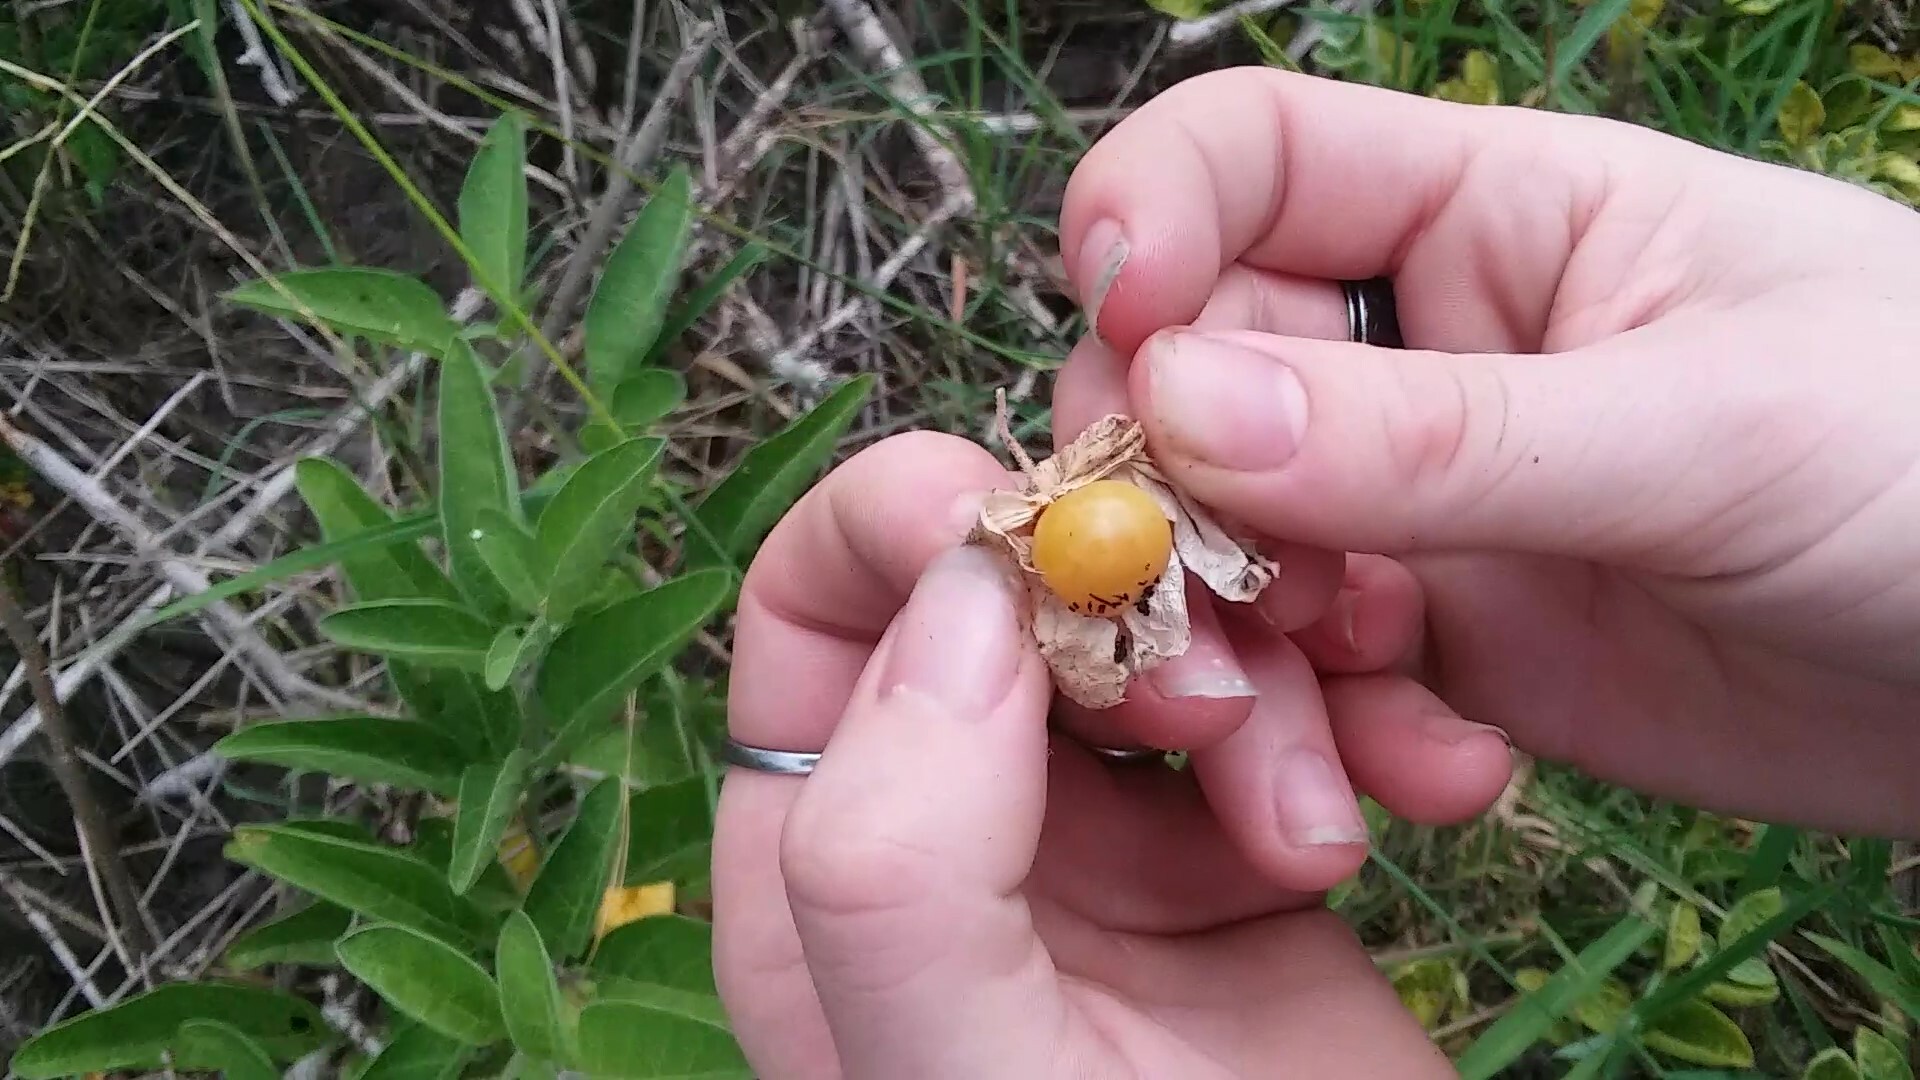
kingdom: Plantae
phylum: Tracheophyta
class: Magnoliopsida
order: Solanales
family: Solanaceae
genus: Physalis
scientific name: Physalis walteri
